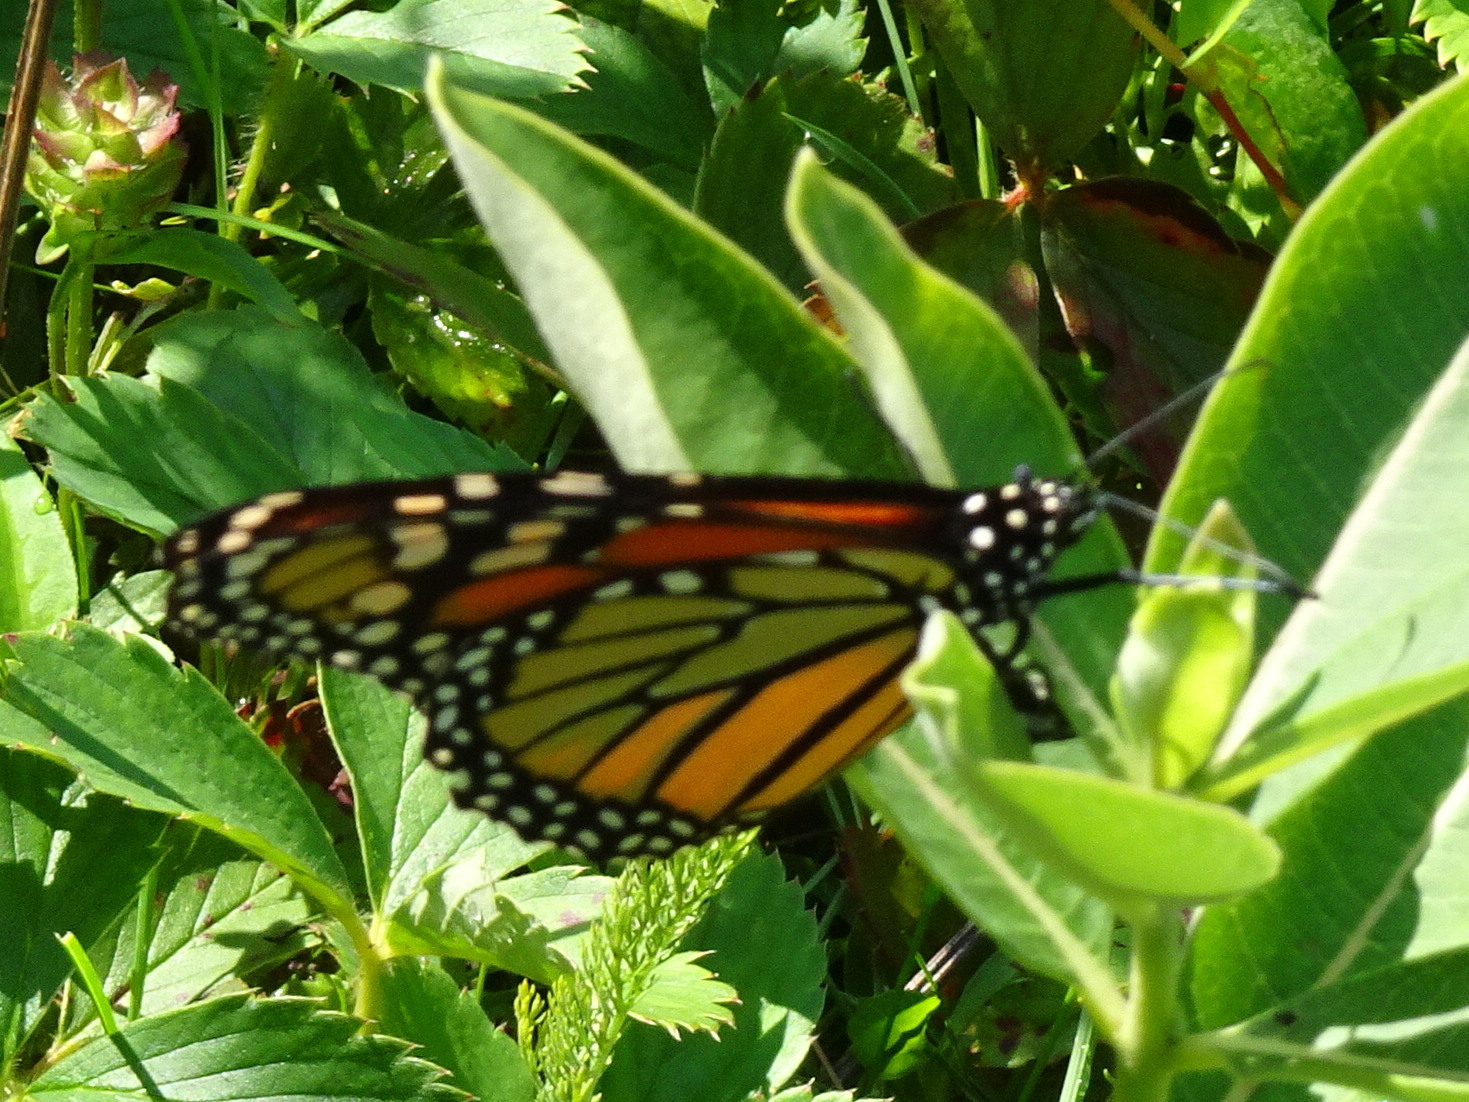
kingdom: Animalia
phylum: Arthropoda
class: Insecta
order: Lepidoptera
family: Nymphalidae
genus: Danaus
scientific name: Danaus plexippus
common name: Monarch
